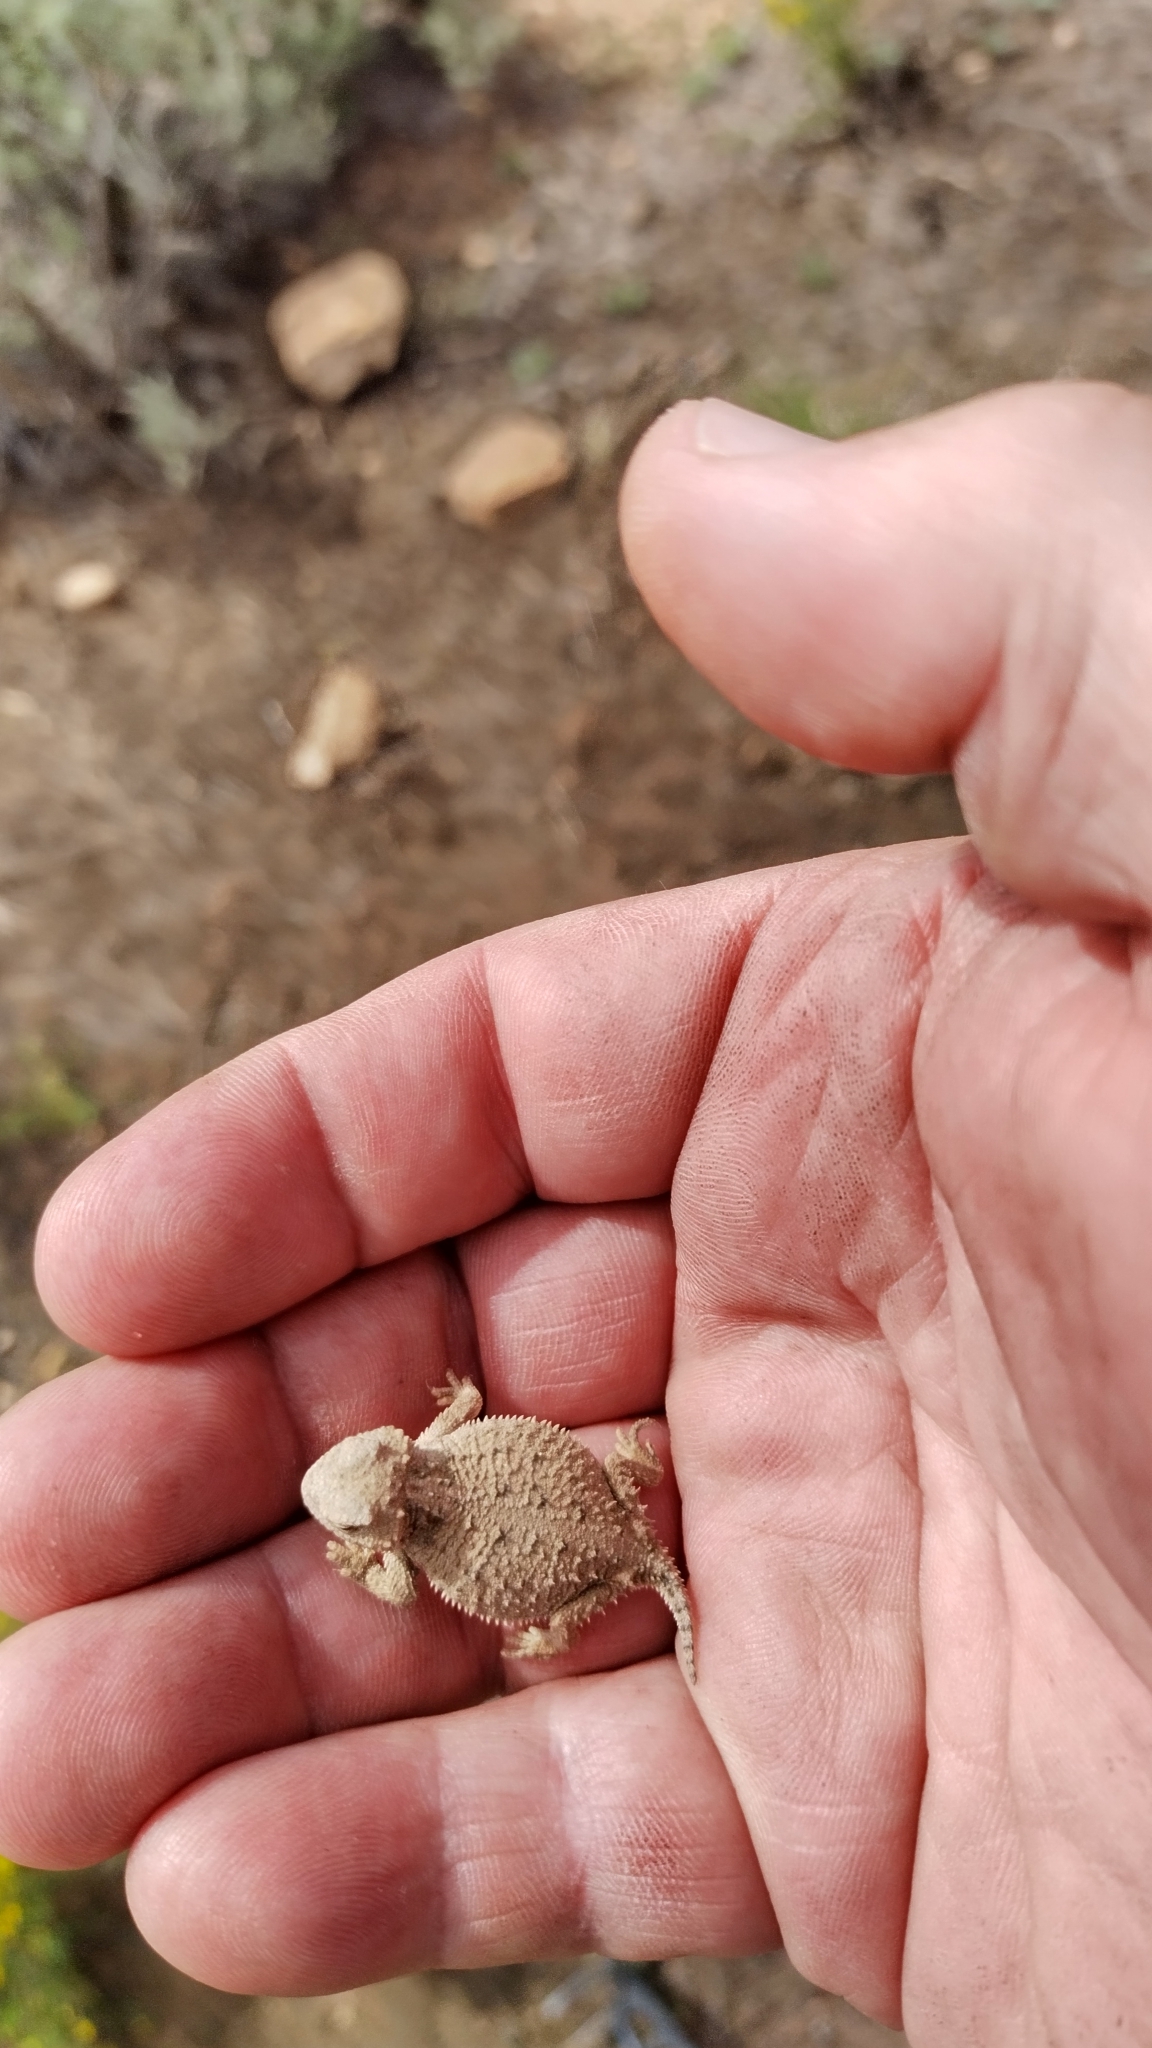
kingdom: Animalia
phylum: Chordata
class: Squamata
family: Phrynosomatidae
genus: Phrynosoma
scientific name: Phrynosoma hernandesi
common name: Greater short-horned lizard
